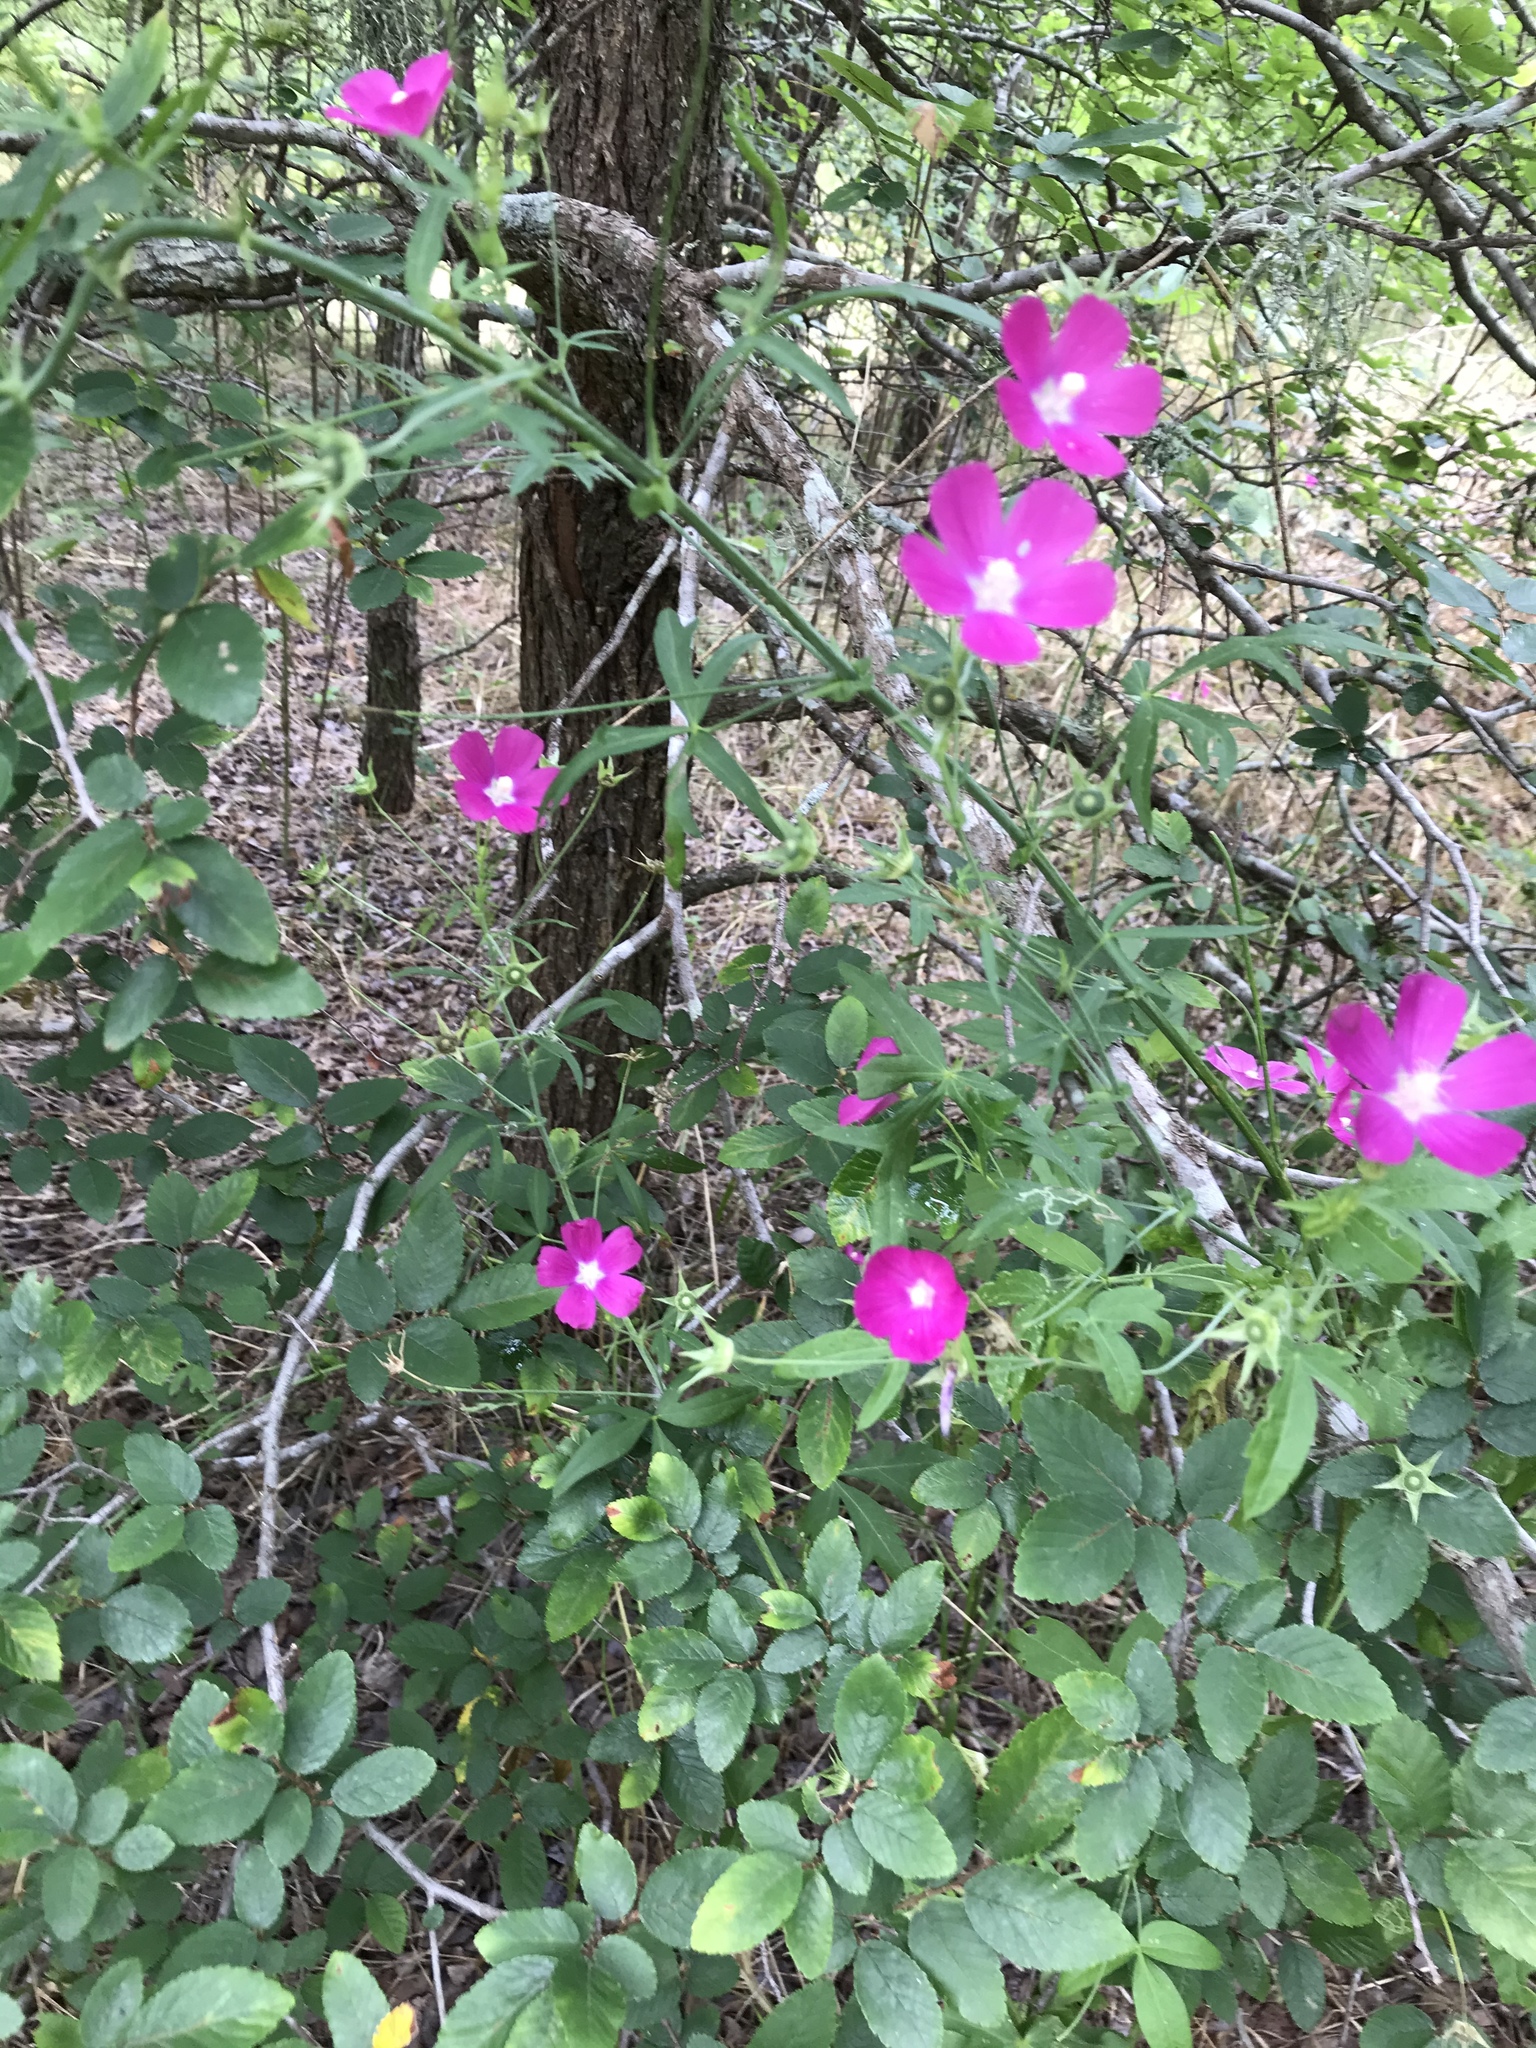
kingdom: Plantae
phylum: Tracheophyta
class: Magnoliopsida
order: Malvales
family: Malvaceae
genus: Callirhoe
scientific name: Callirhoe leiocarpa
